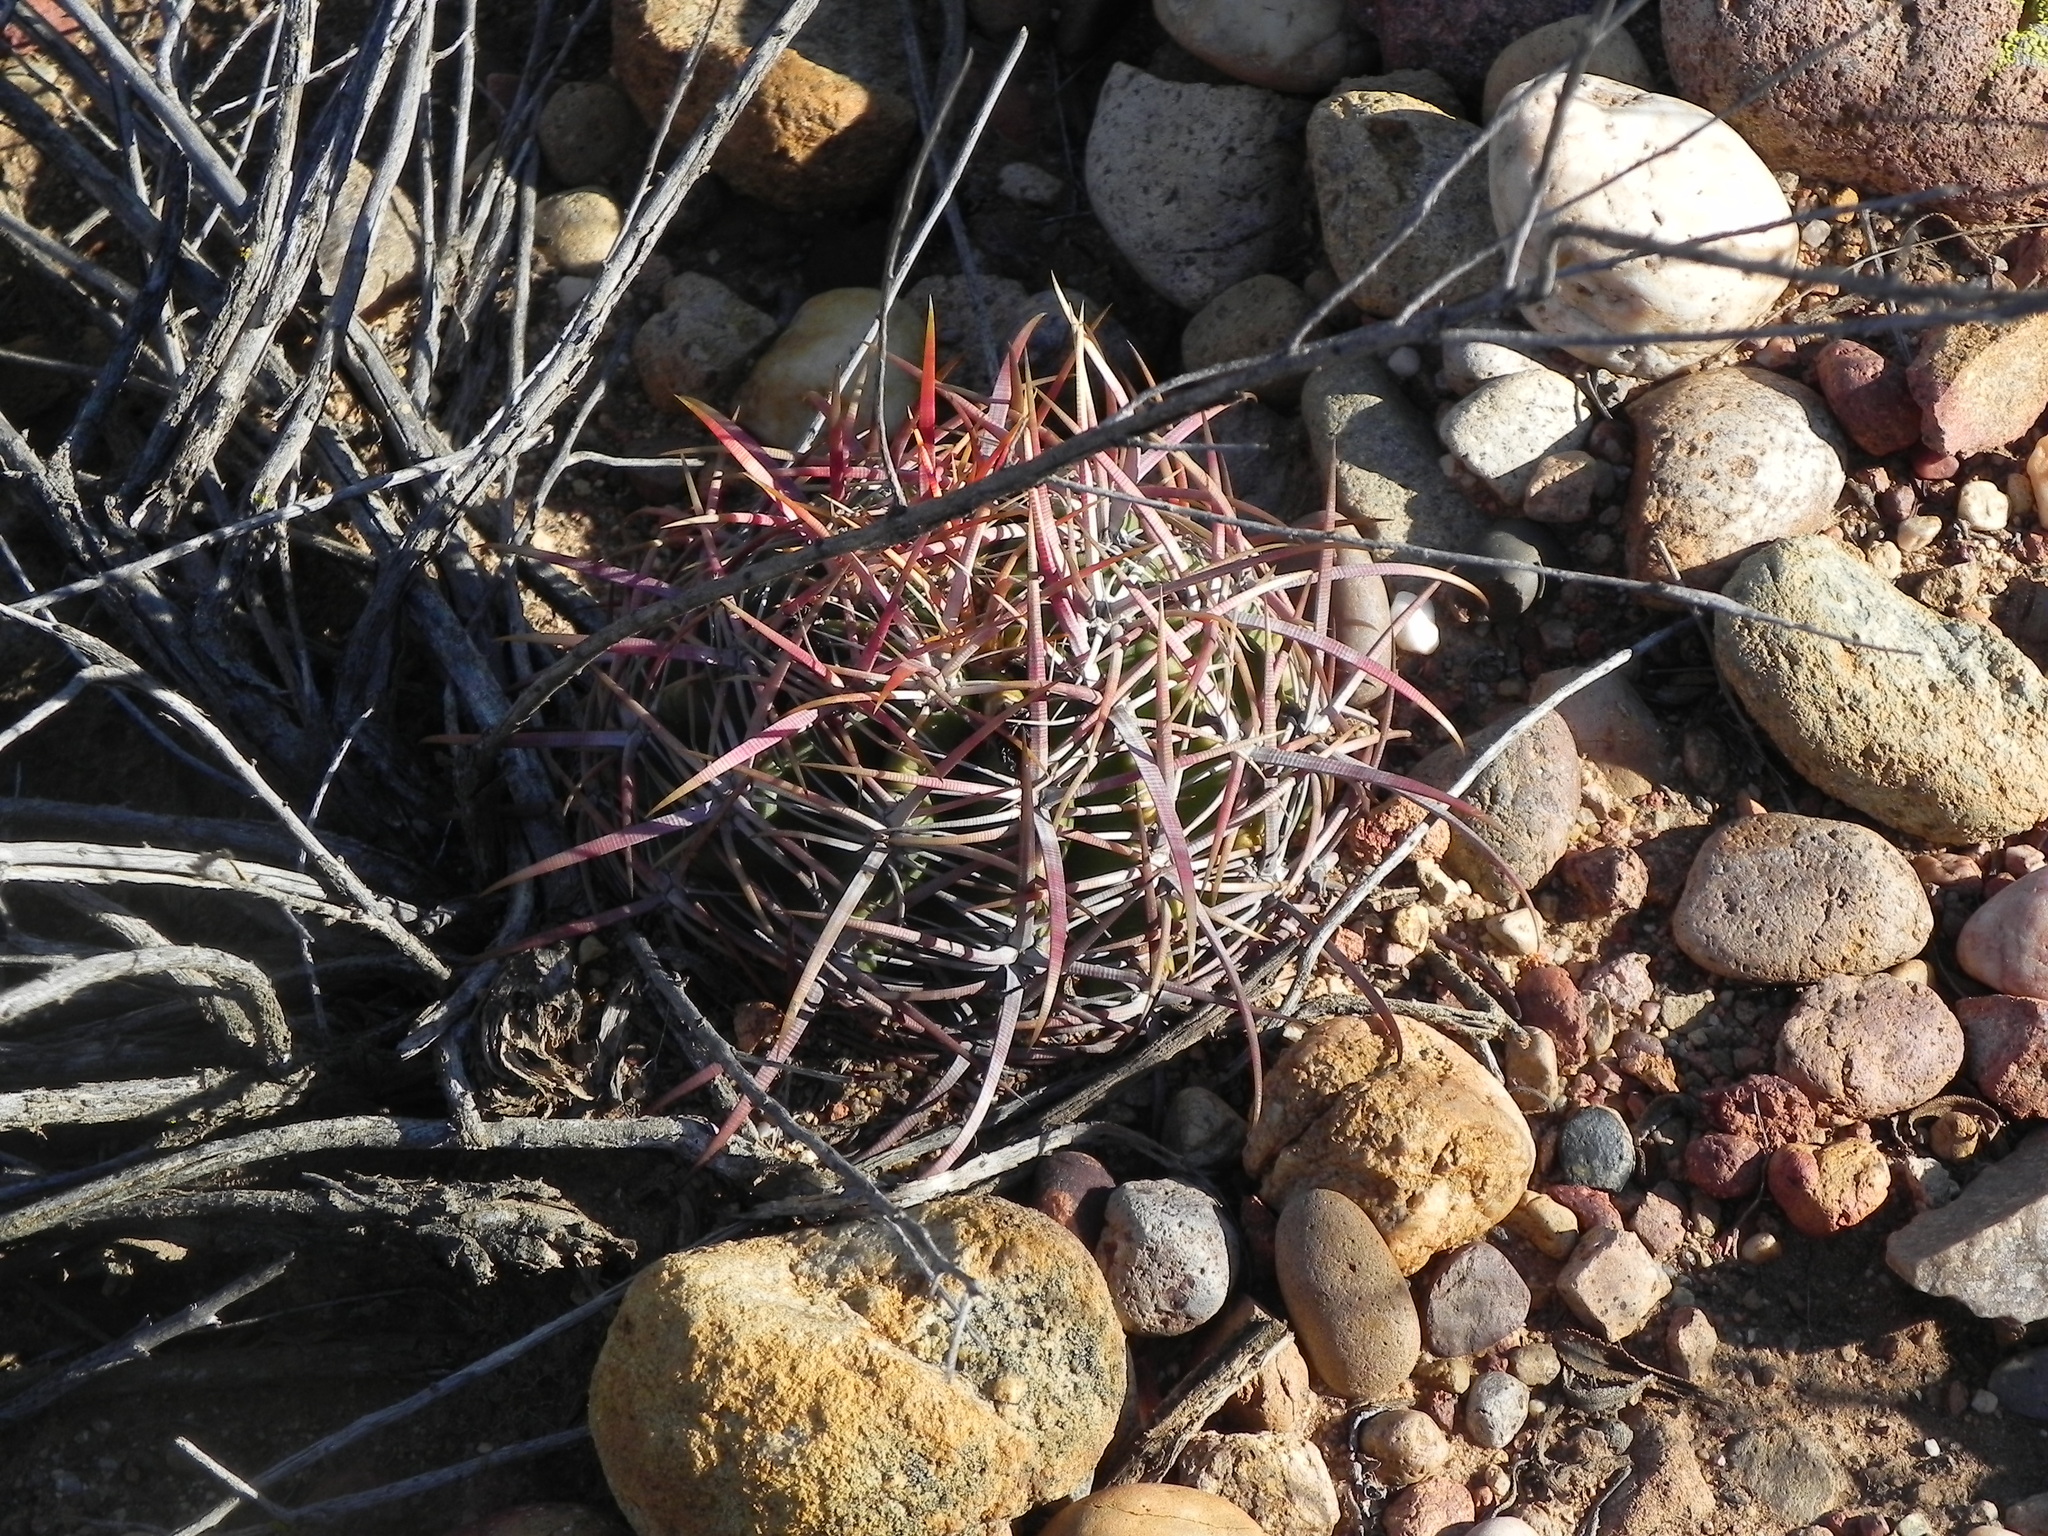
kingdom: Plantae
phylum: Tracheophyta
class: Magnoliopsida
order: Caryophyllales
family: Cactaceae
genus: Ferocactus
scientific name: Ferocactus viridescens
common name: San diego barrel cactus
